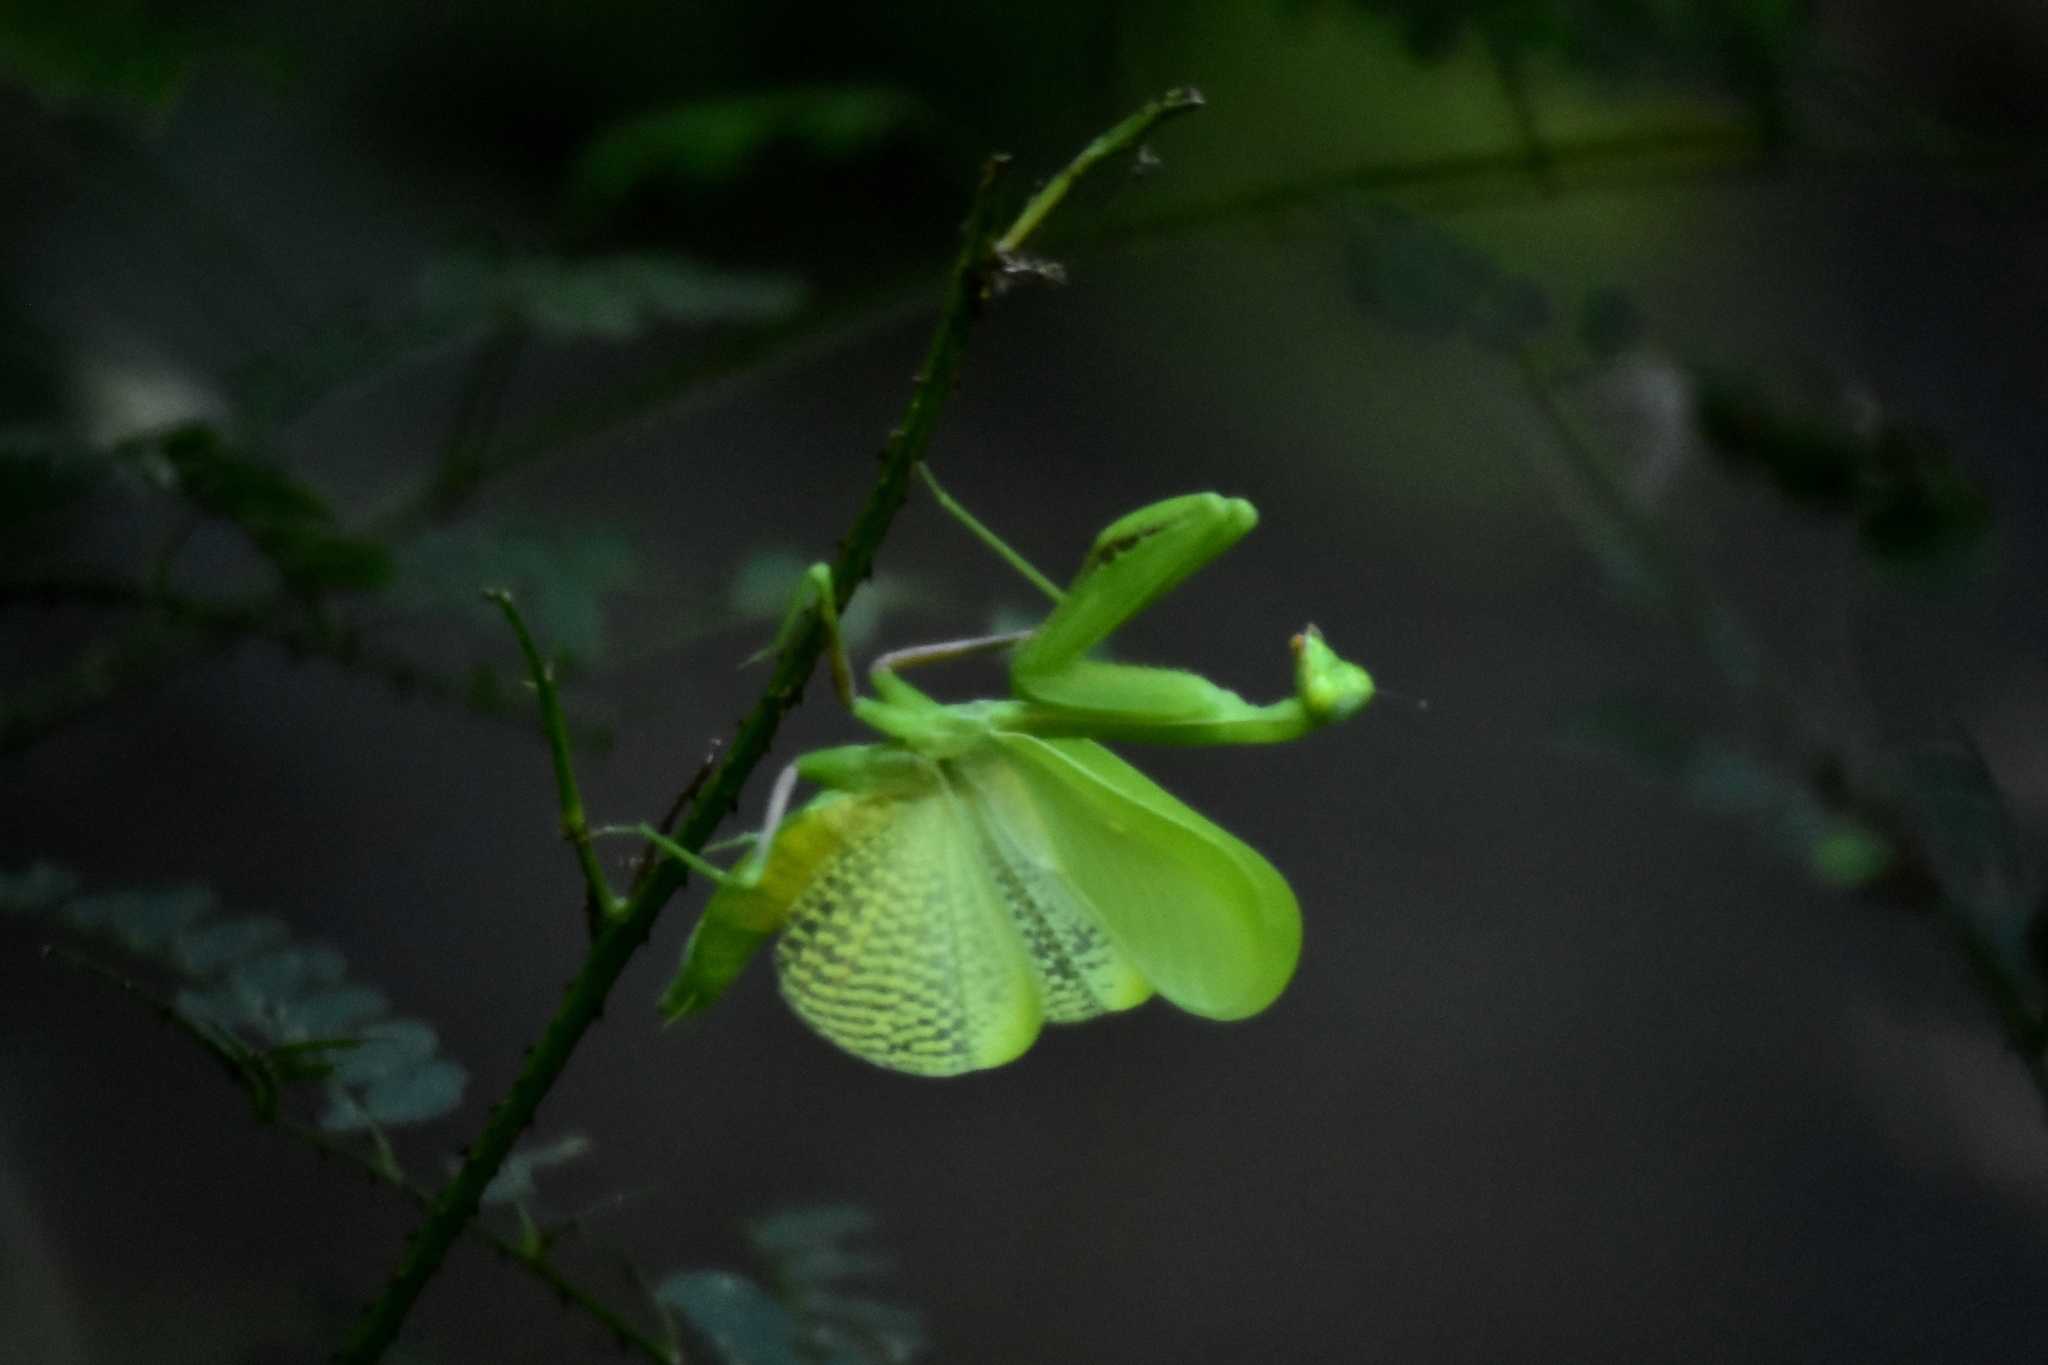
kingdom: Animalia
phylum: Arthropoda
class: Insecta
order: Mantodea
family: Mantidae
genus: Stagmomantis
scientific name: Stagmomantis limbata
